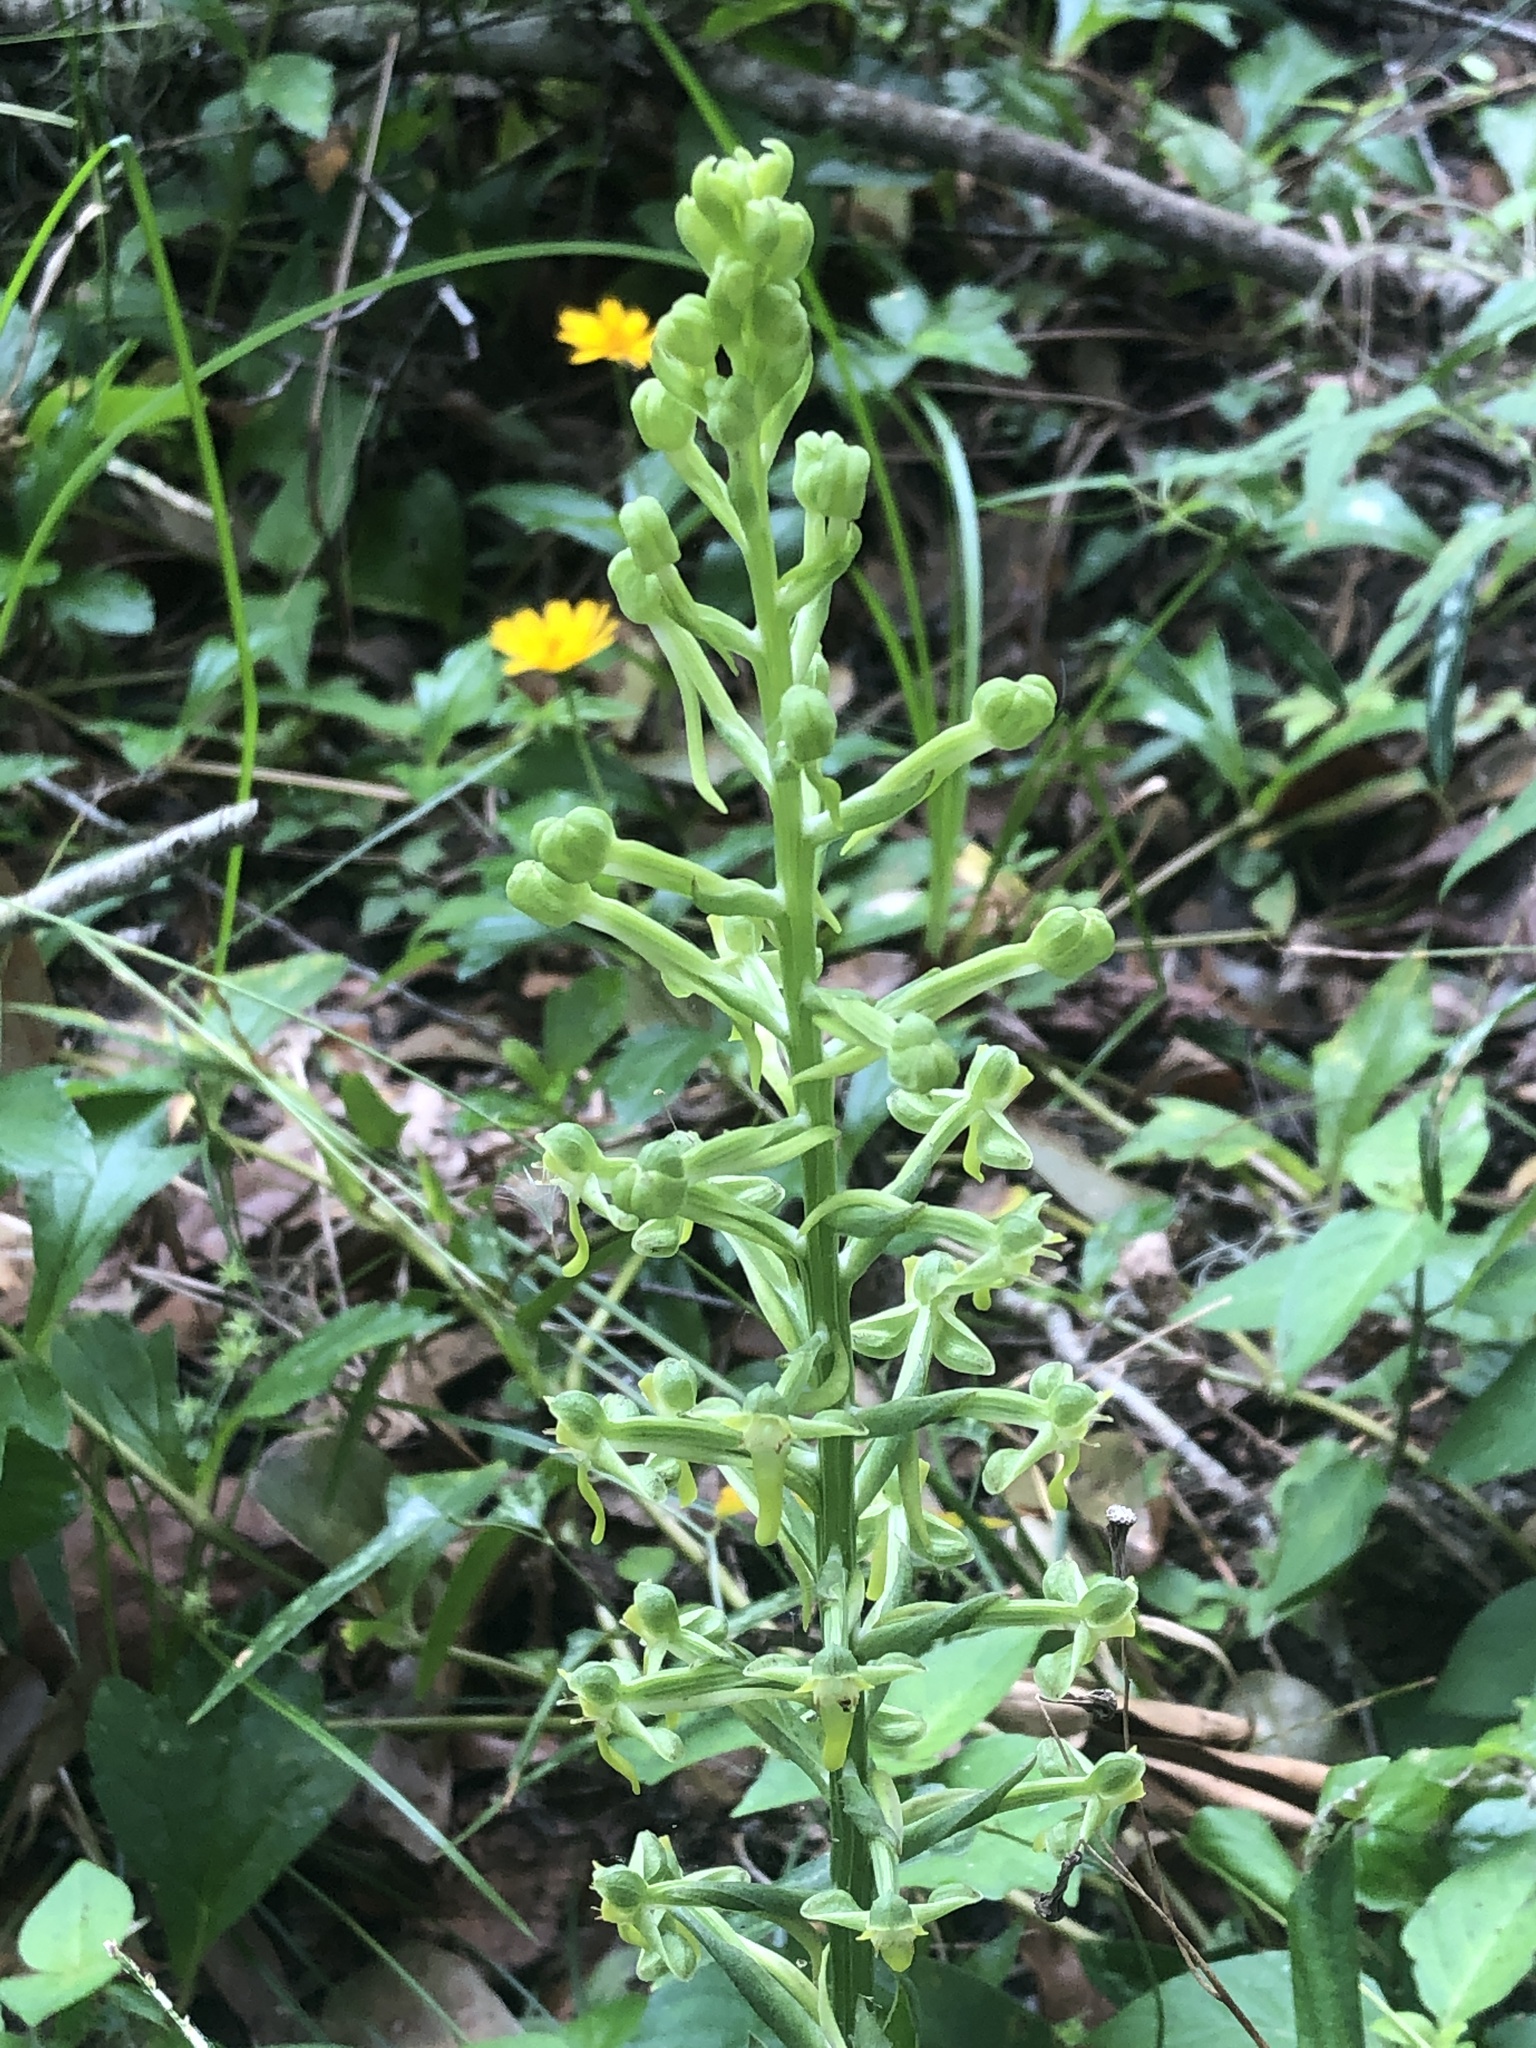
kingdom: Plantae
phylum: Tracheophyta
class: Liliopsida
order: Asparagales
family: Orchidaceae
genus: Habenaria
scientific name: Habenaria floribunda
